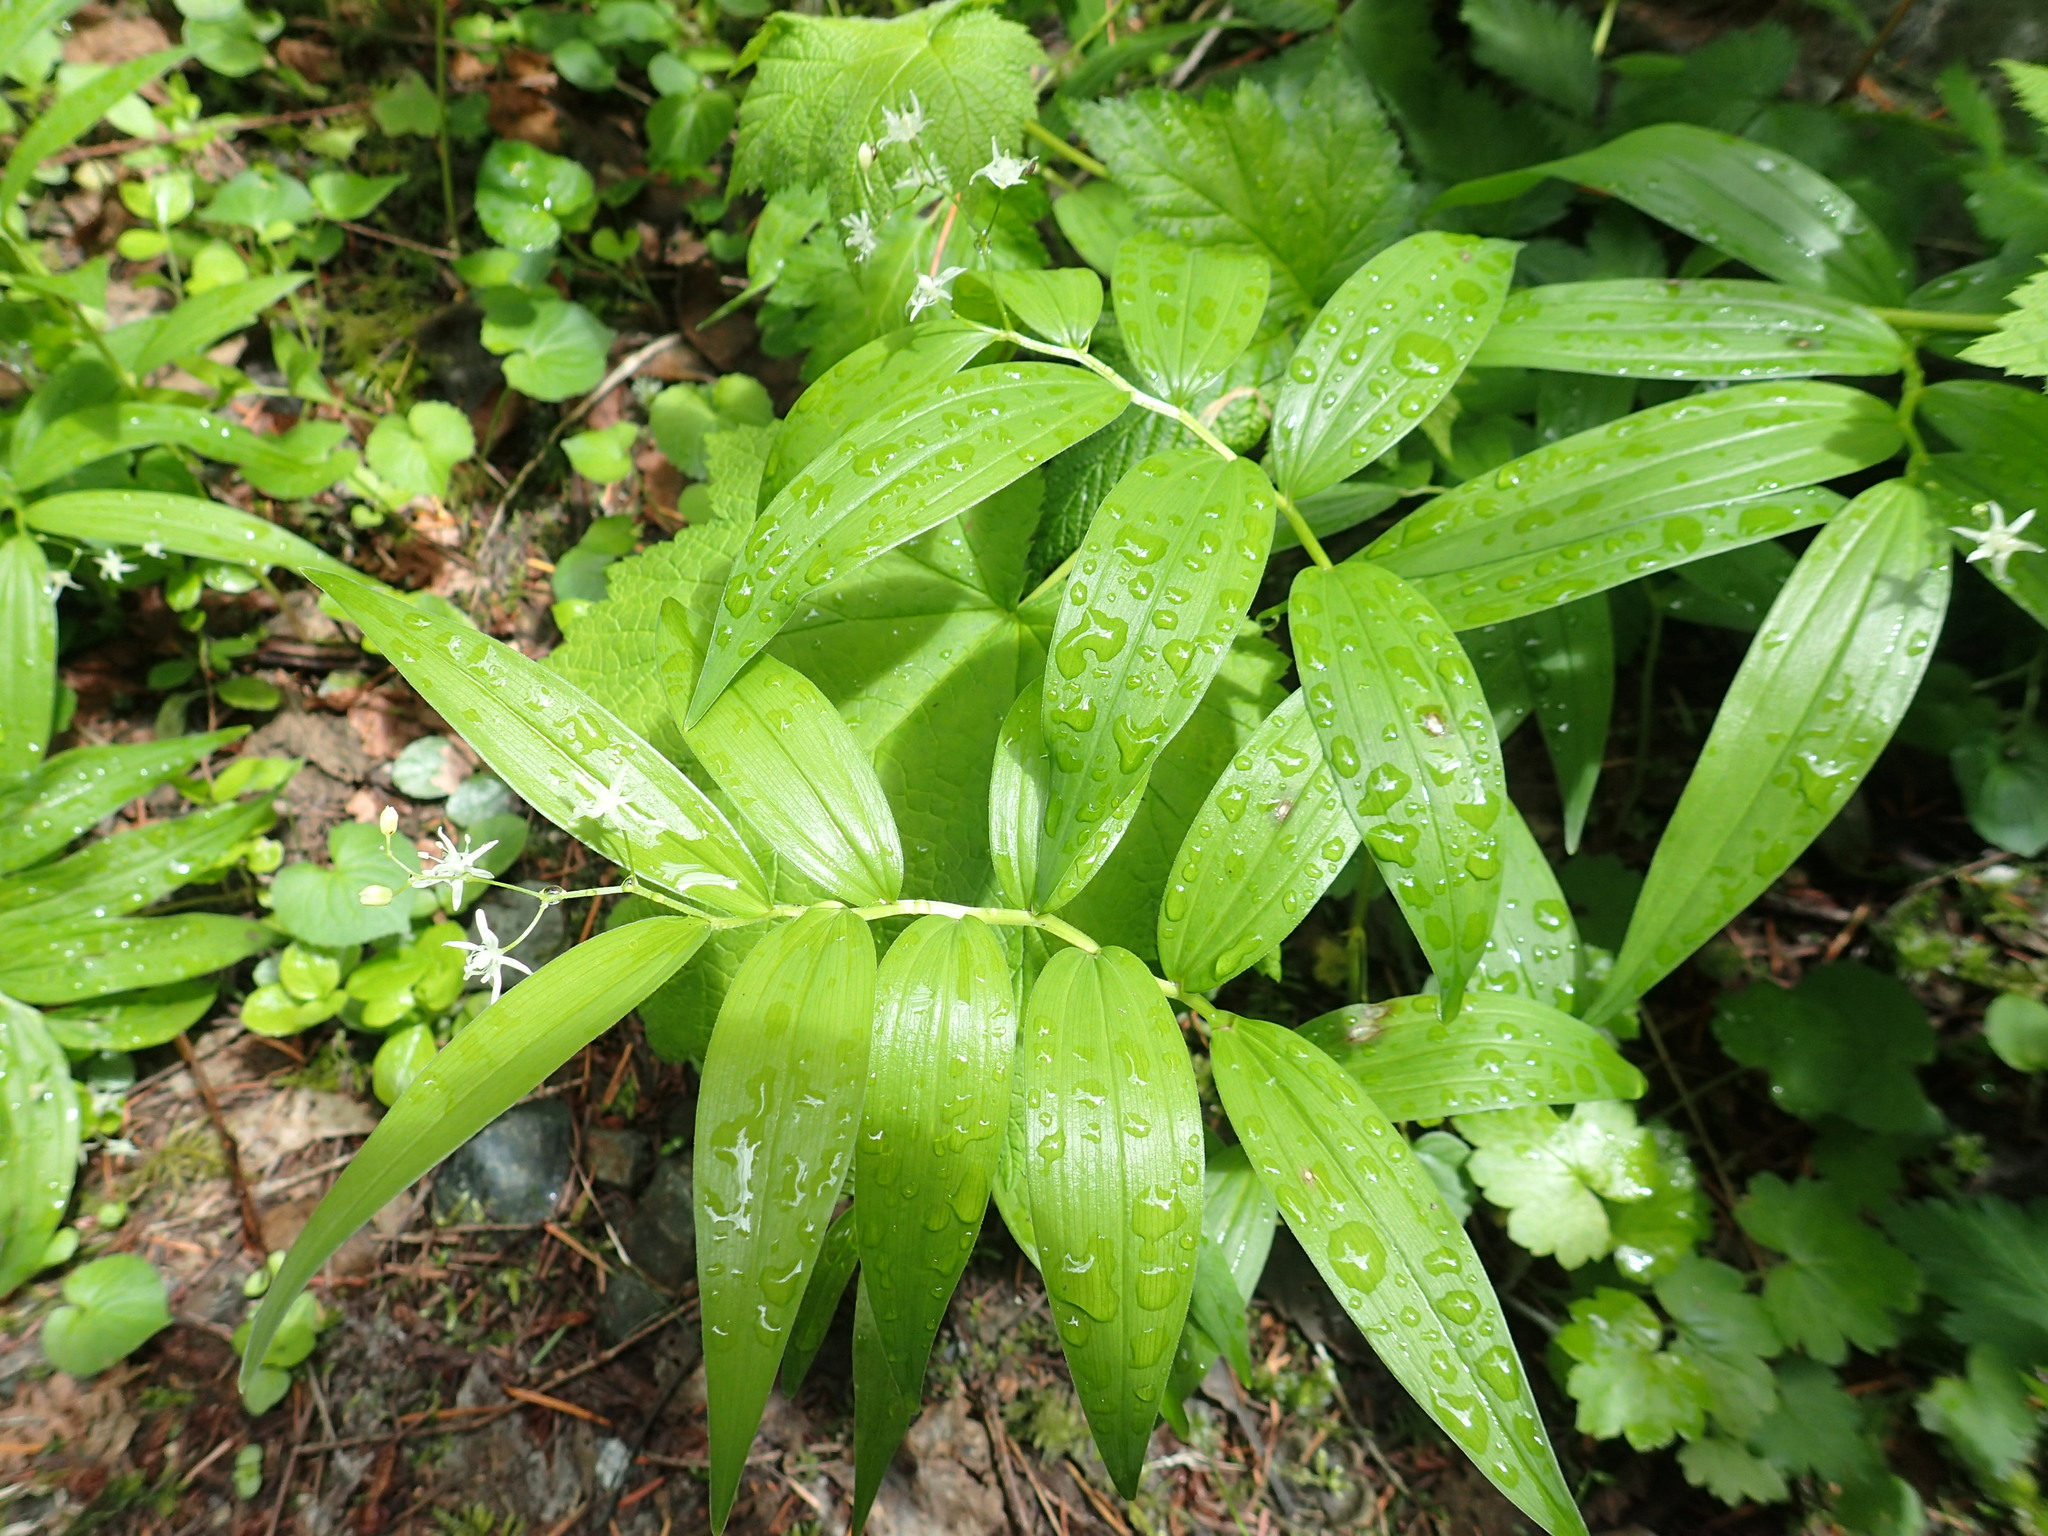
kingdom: Plantae
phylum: Tracheophyta
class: Liliopsida
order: Asparagales
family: Asparagaceae
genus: Maianthemum
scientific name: Maianthemum stellatum
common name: Little false solomon's seal
